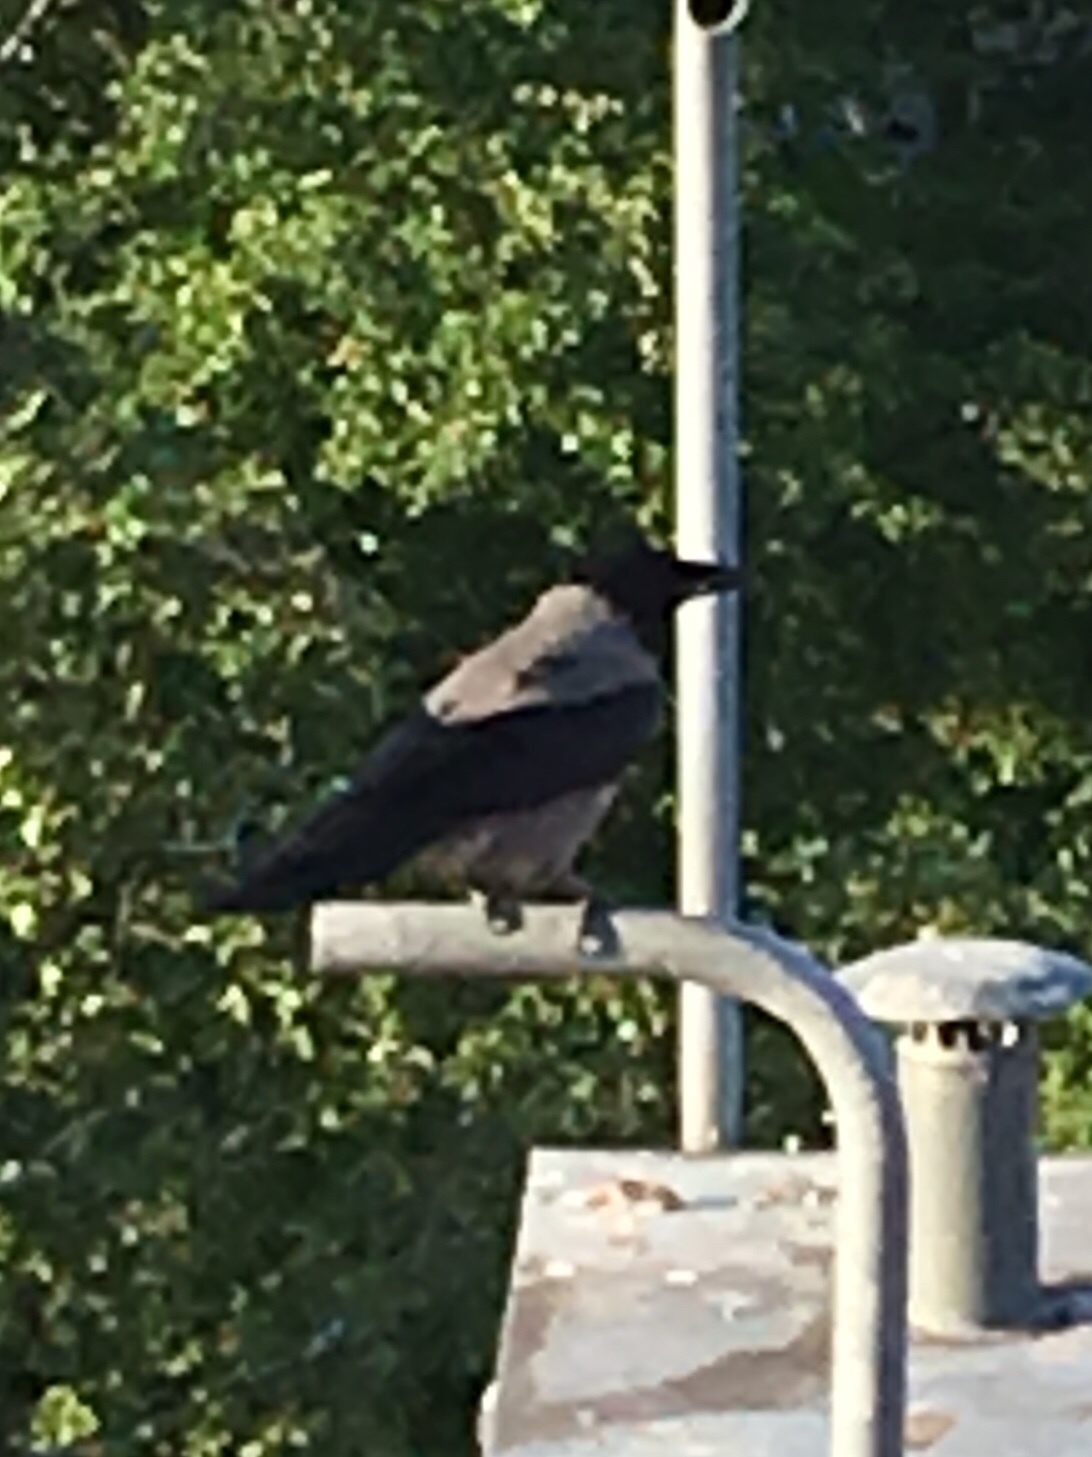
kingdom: Animalia
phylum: Chordata
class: Aves
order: Passeriformes
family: Corvidae
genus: Corvus
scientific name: Corvus cornix
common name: Hooded crow
